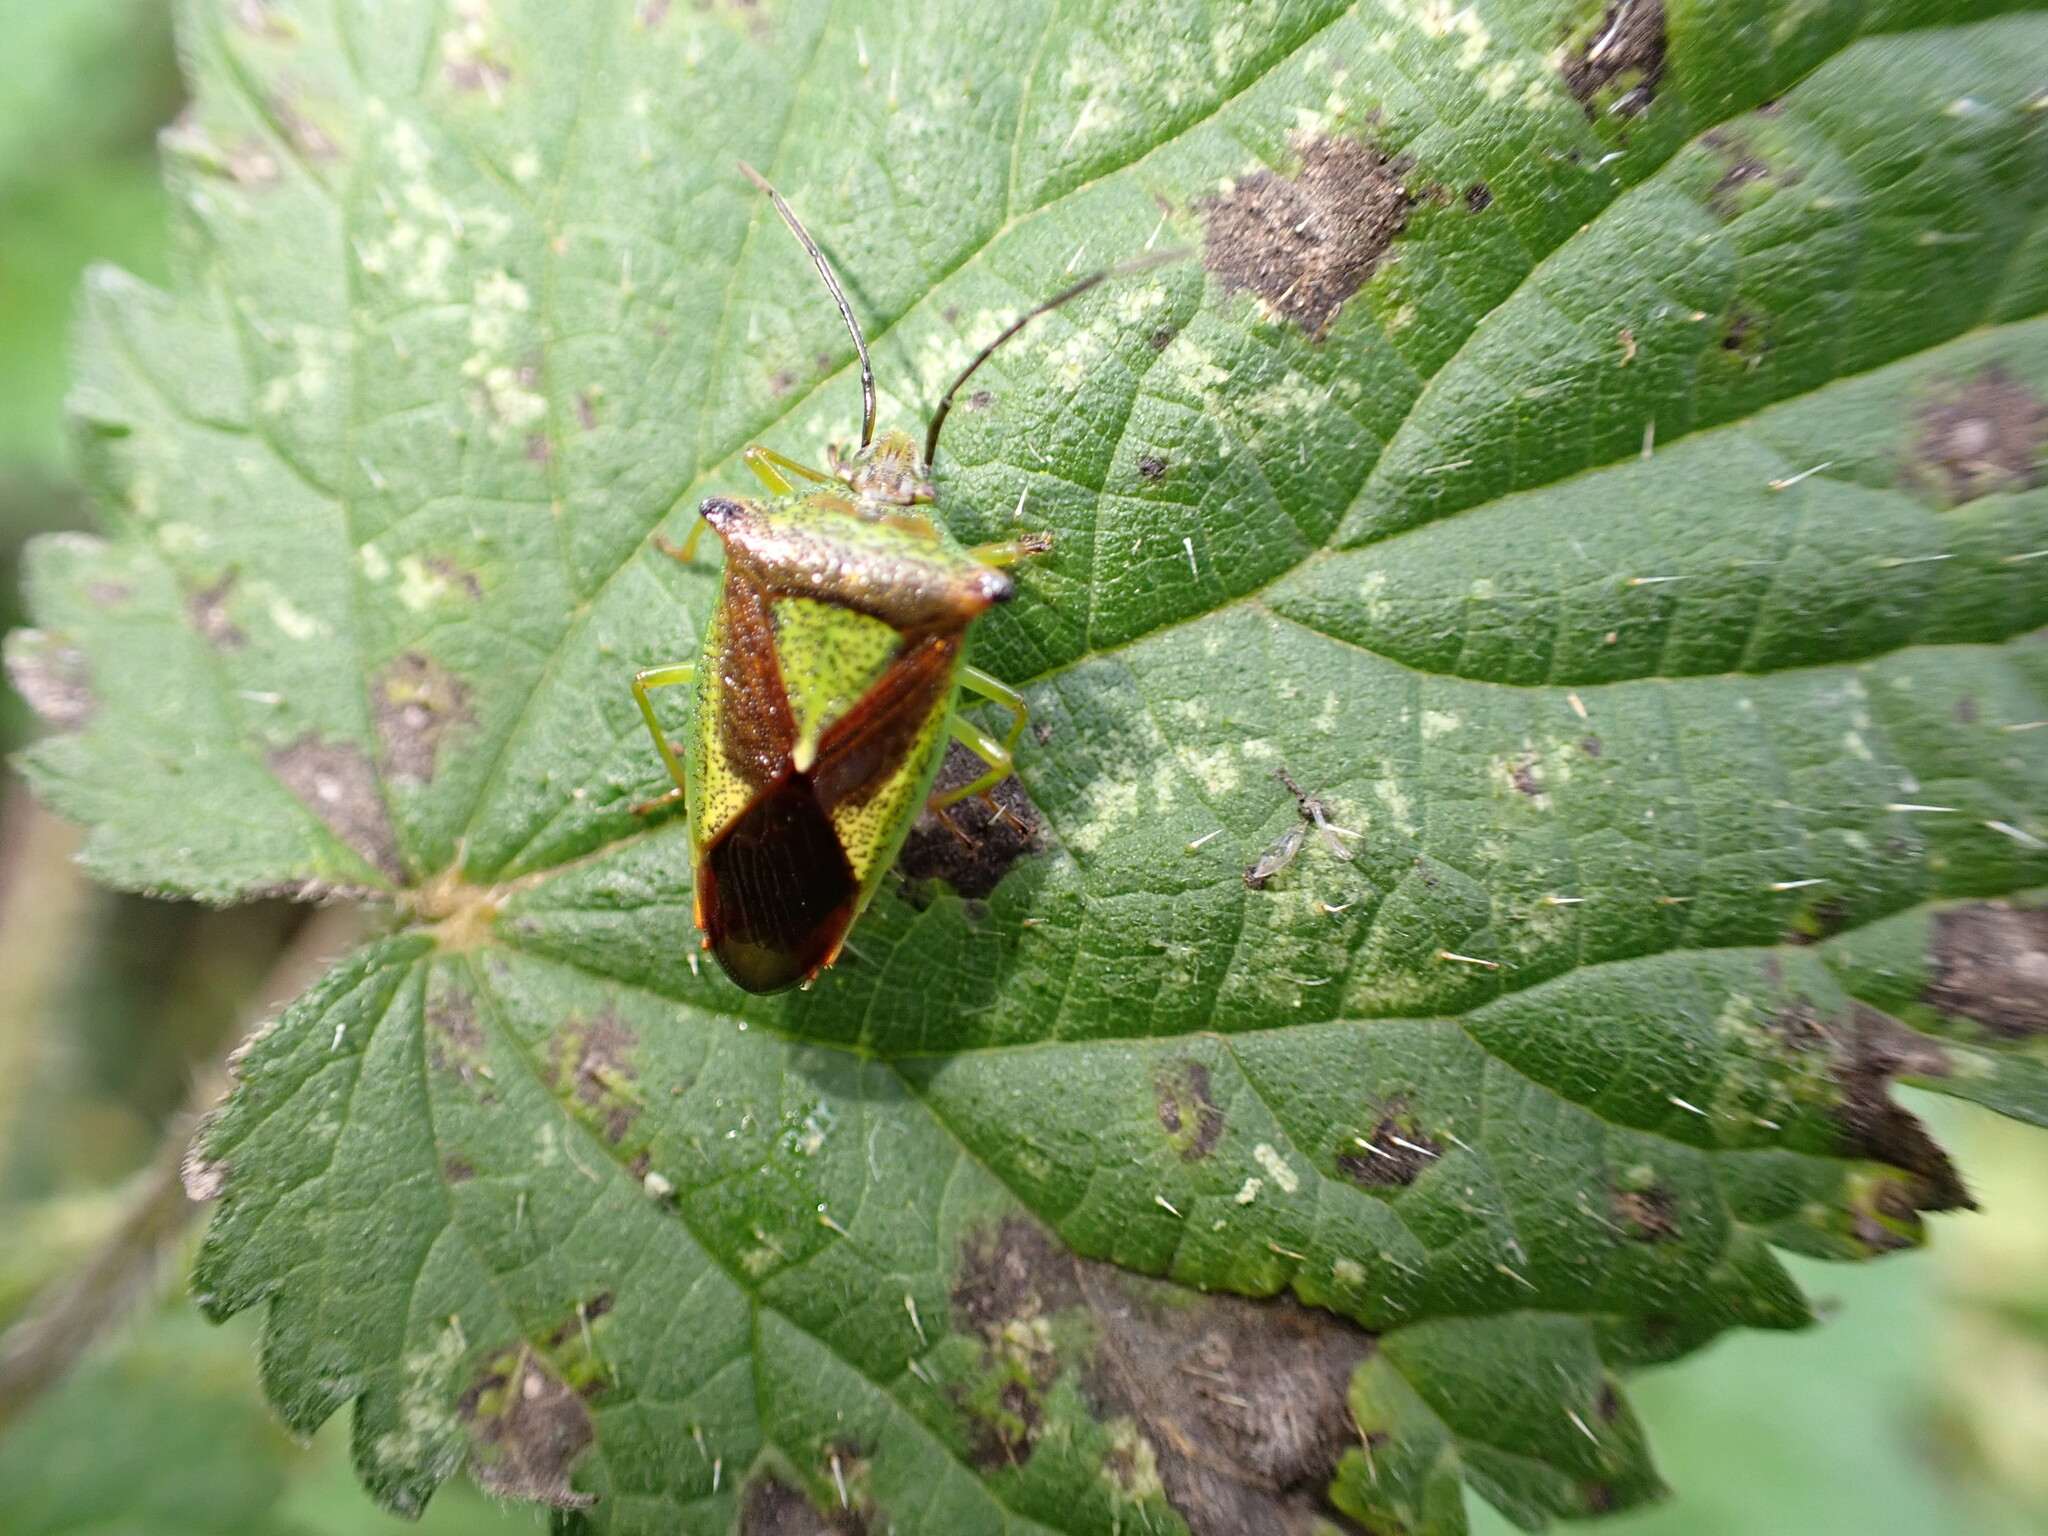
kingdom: Animalia
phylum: Arthropoda
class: Insecta
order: Hemiptera
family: Acanthosomatidae
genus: Acanthosoma
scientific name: Acanthosoma haemorrhoidale
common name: Hawthorn shieldbug
